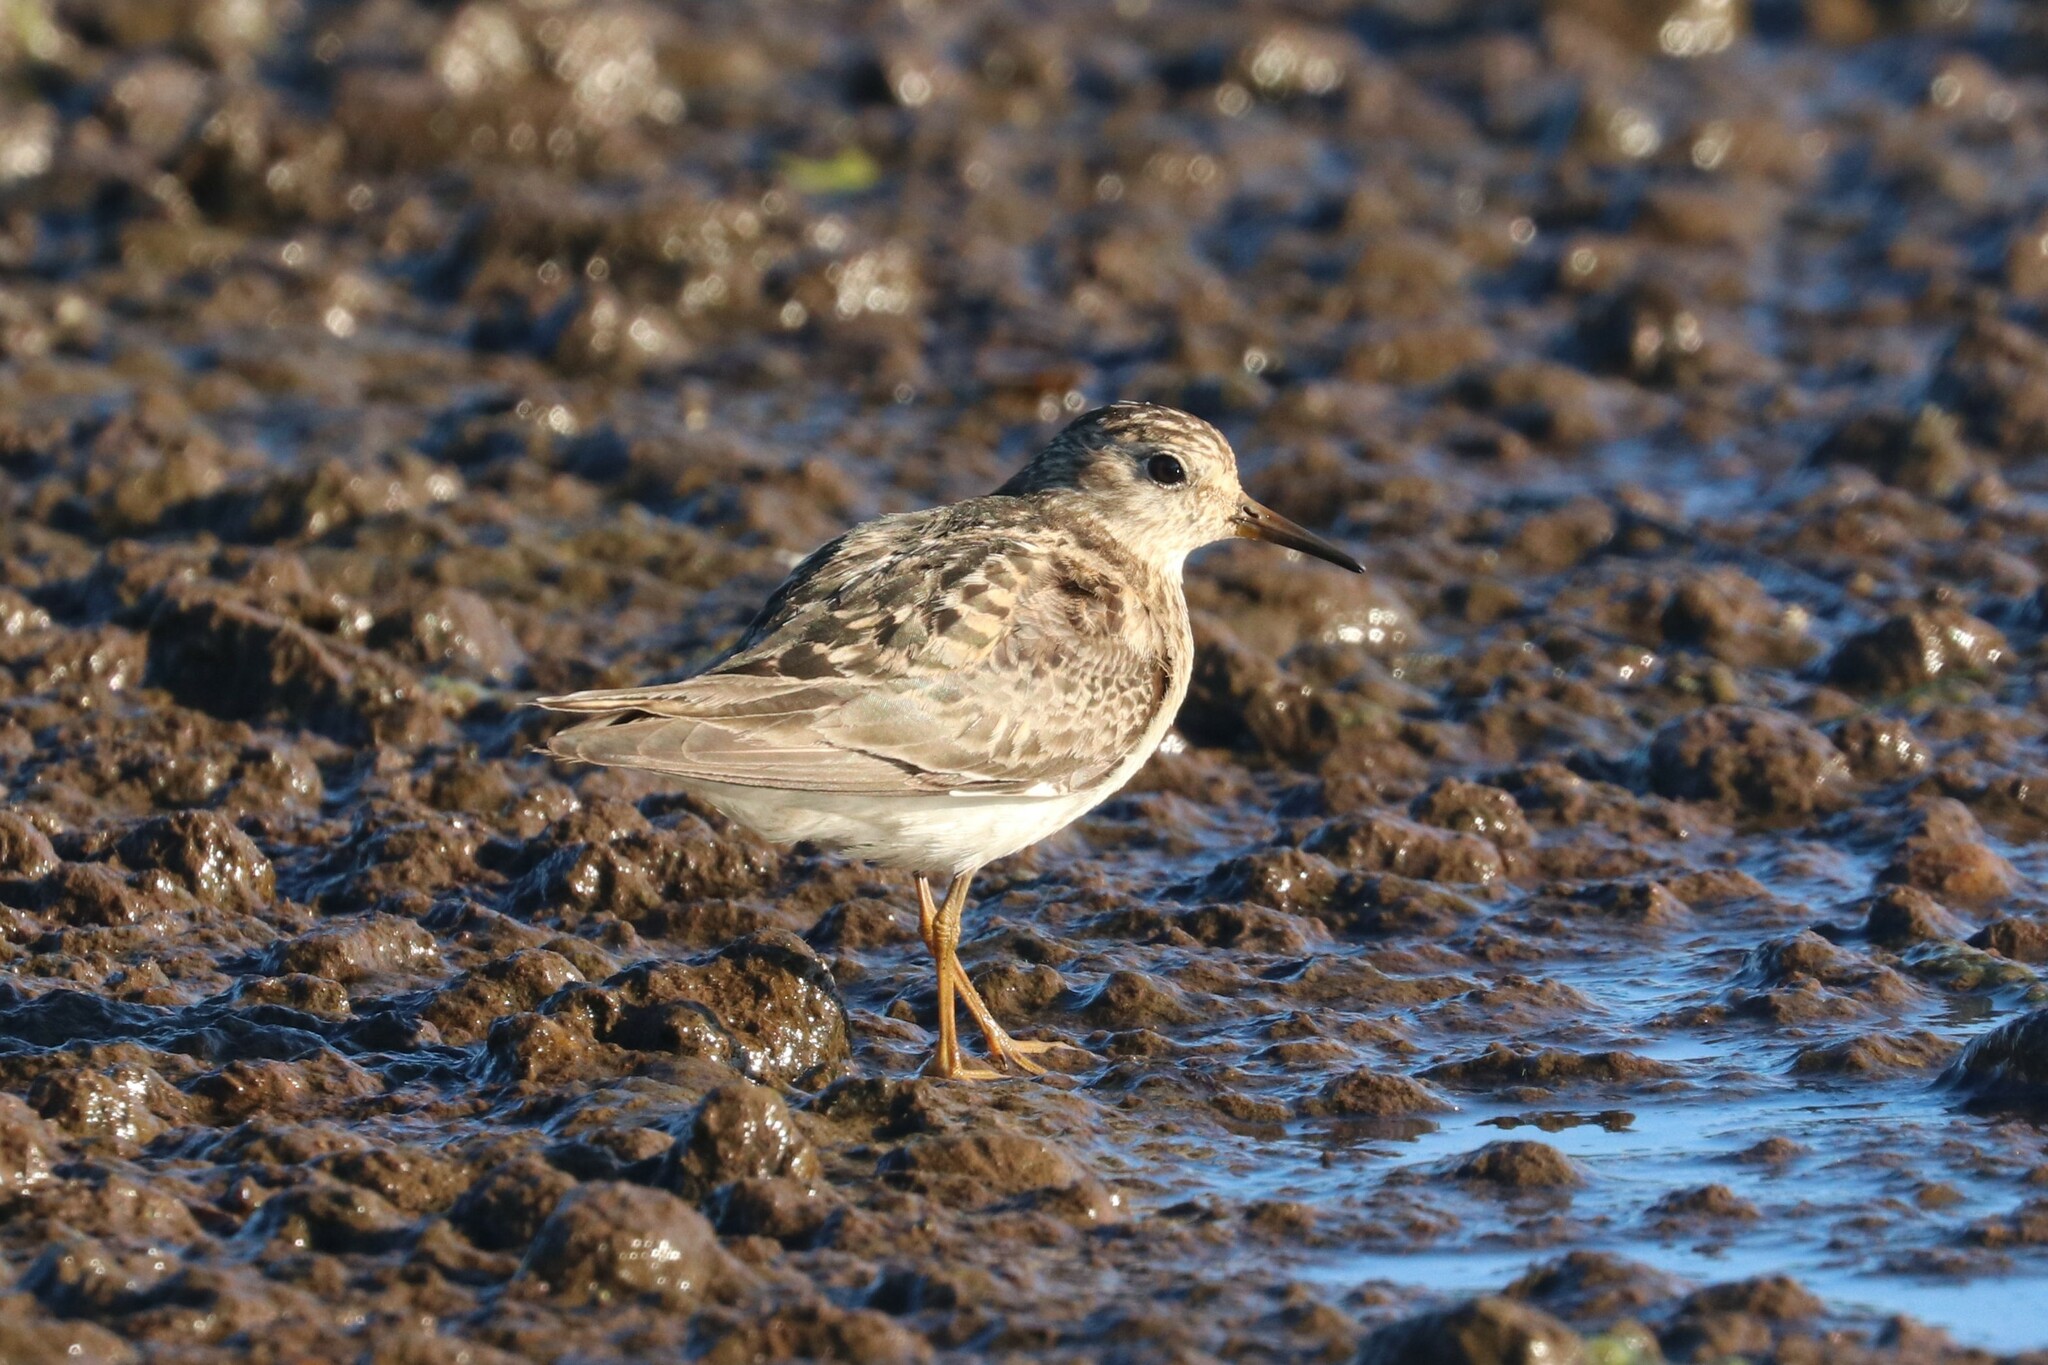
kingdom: Animalia
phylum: Chordata
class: Aves
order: Charadriiformes
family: Scolopacidae
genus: Calidris
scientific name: Calidris temminckii
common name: Temminck's stint
